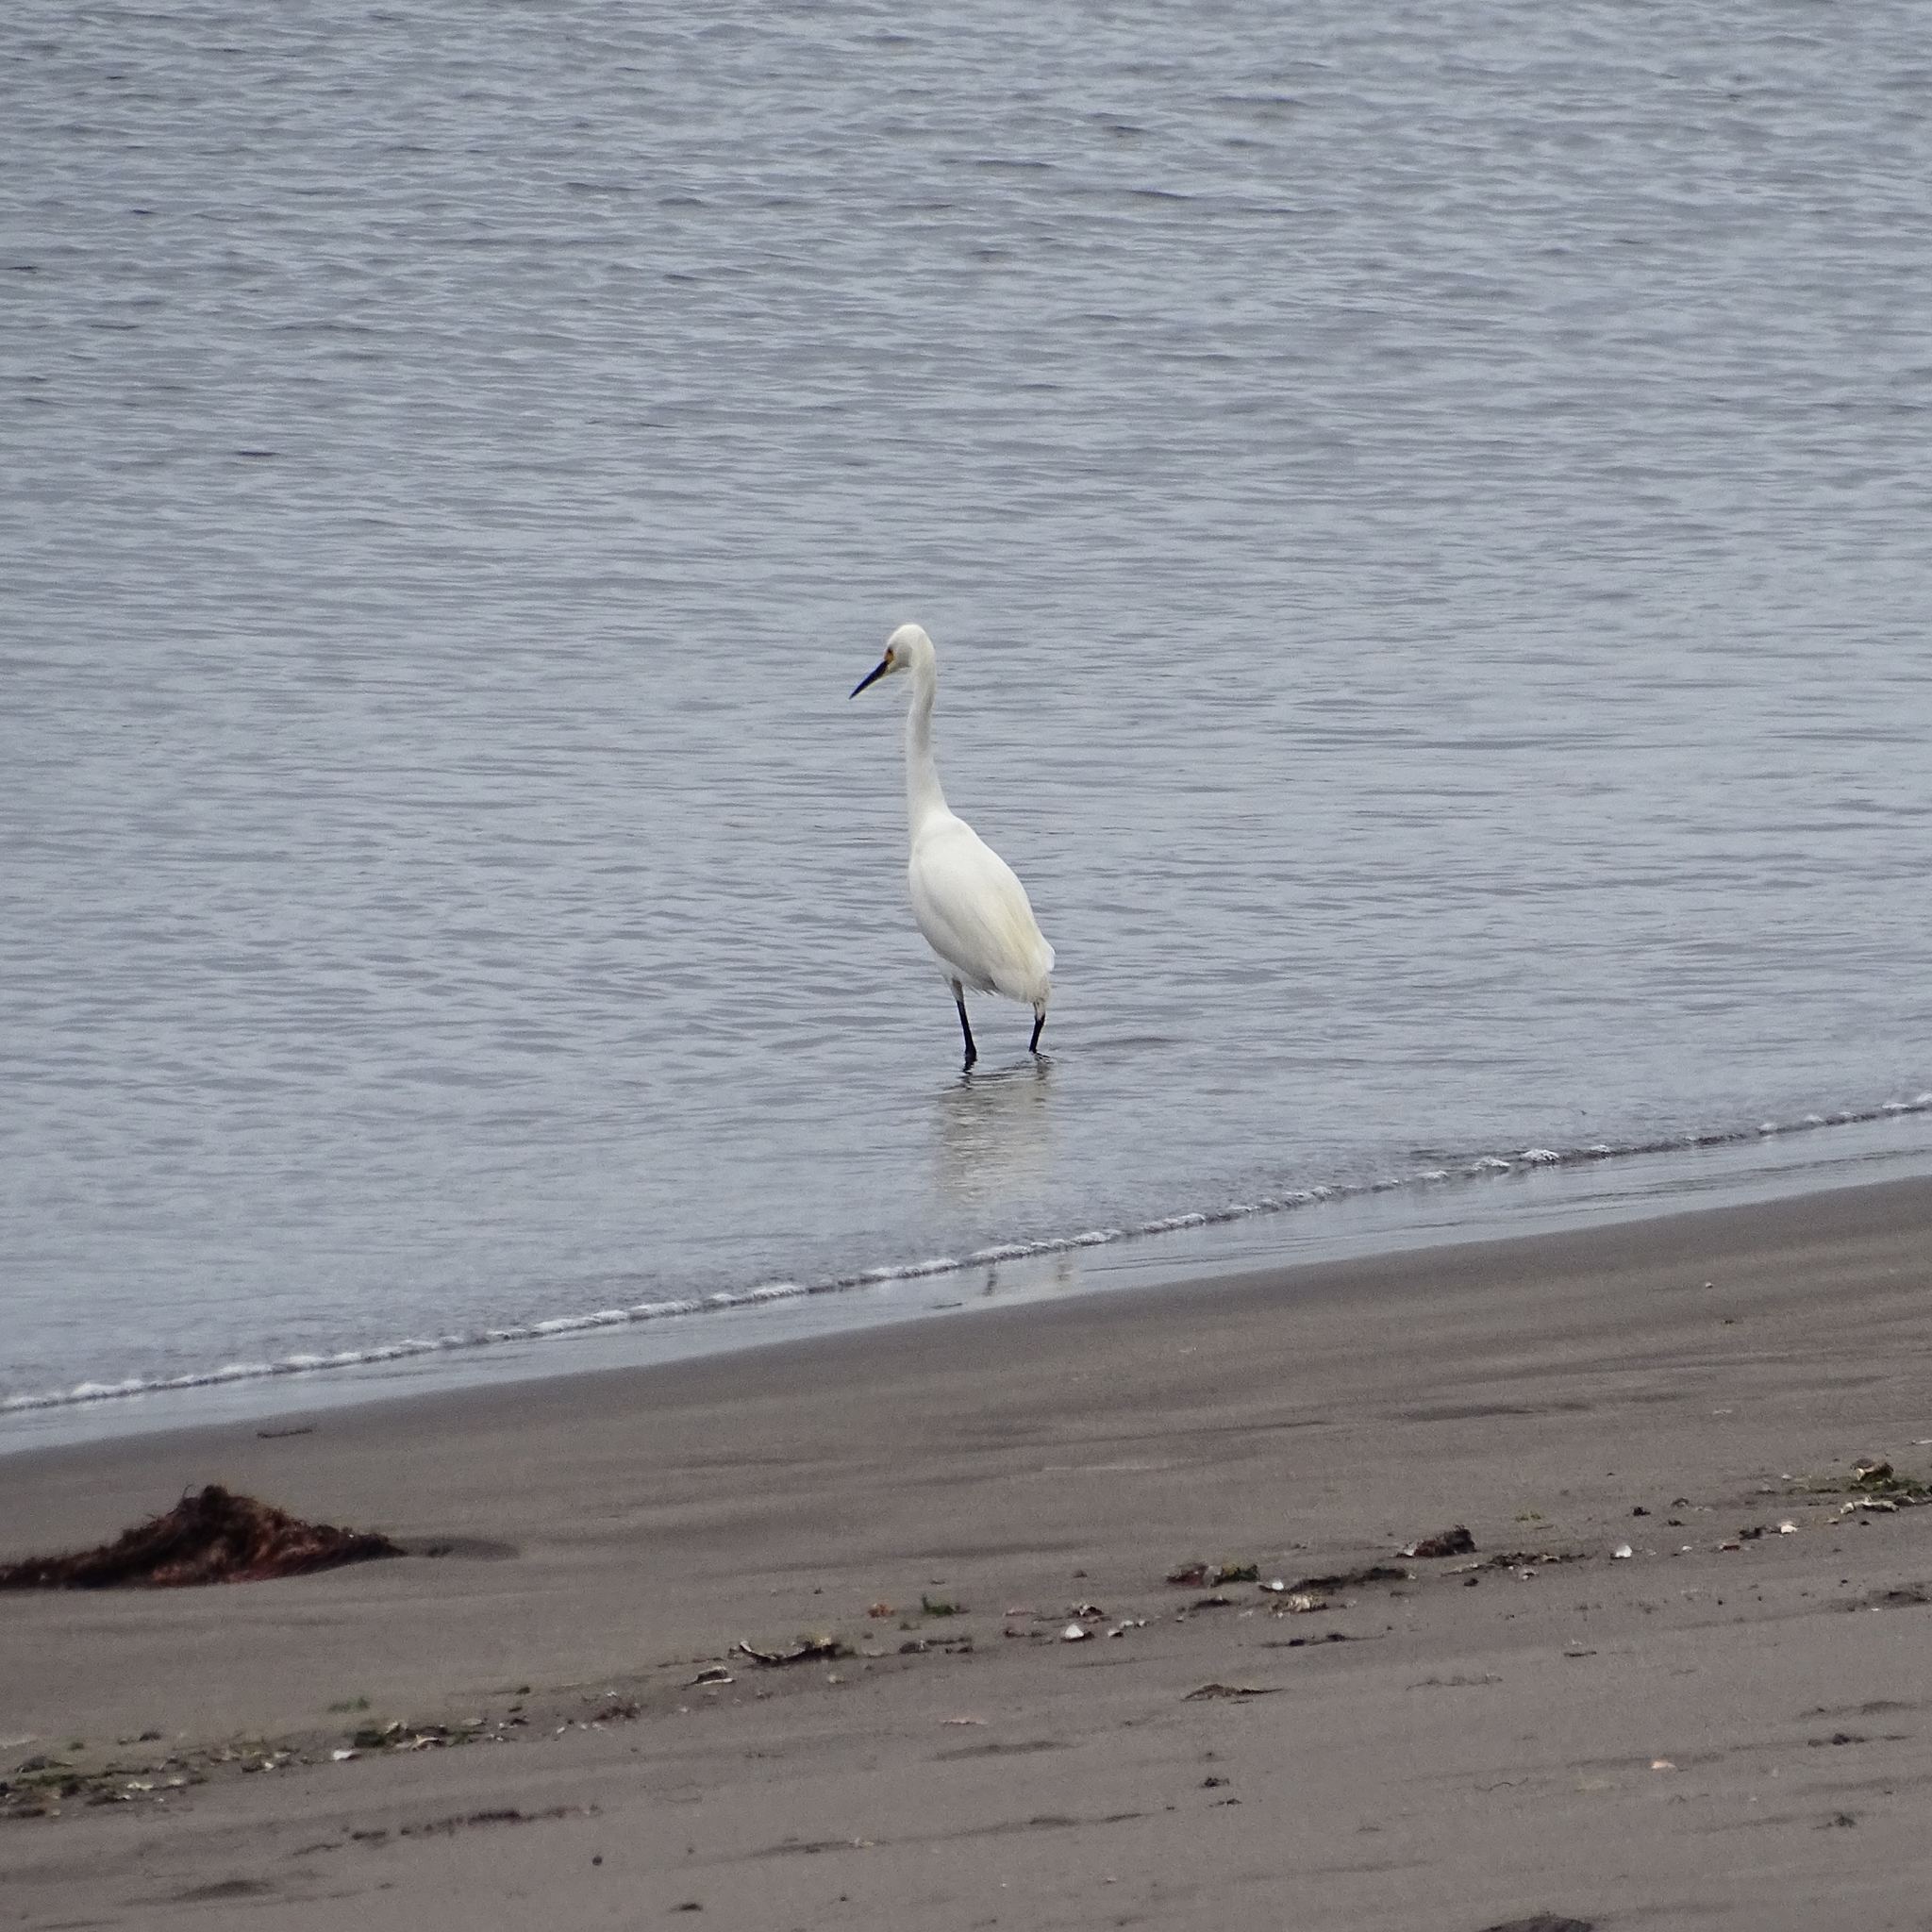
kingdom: Animalia
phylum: Chordata
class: Aves
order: Pelecaniformes
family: Ardeidae
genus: Egretta
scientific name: Egretta thula
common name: Snowy egret
